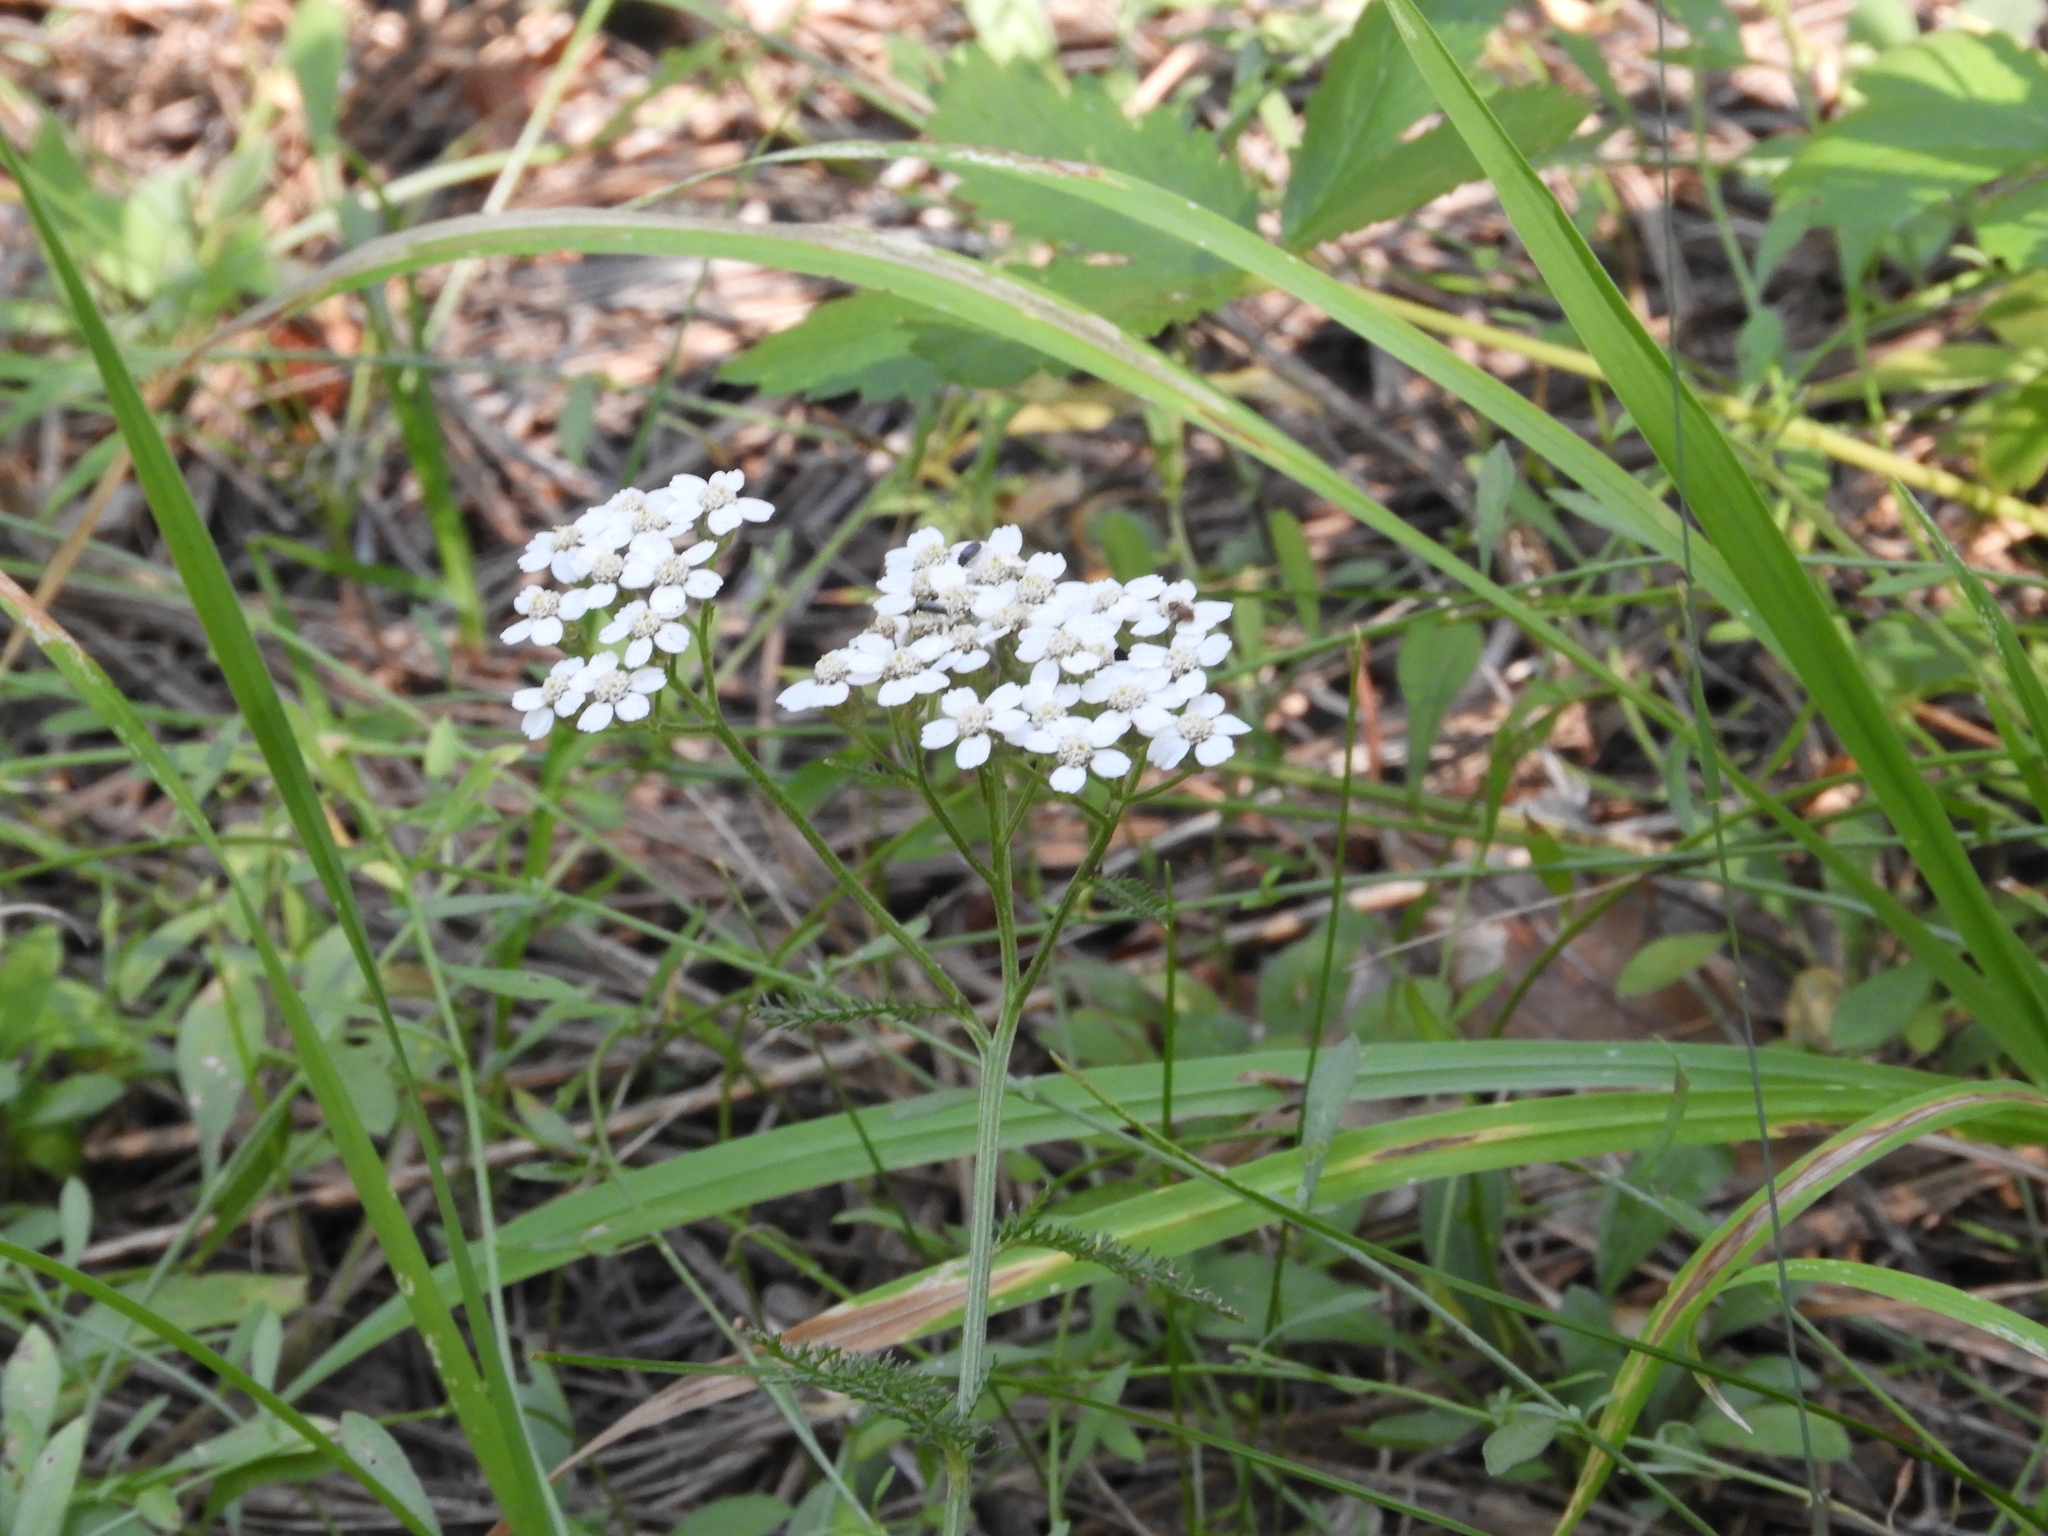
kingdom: Plantae
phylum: Tracheophyta
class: Magnoliopsida
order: Asterales
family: Asteraceae
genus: Achillea
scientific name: Achillea millefolium
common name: Yarrow
